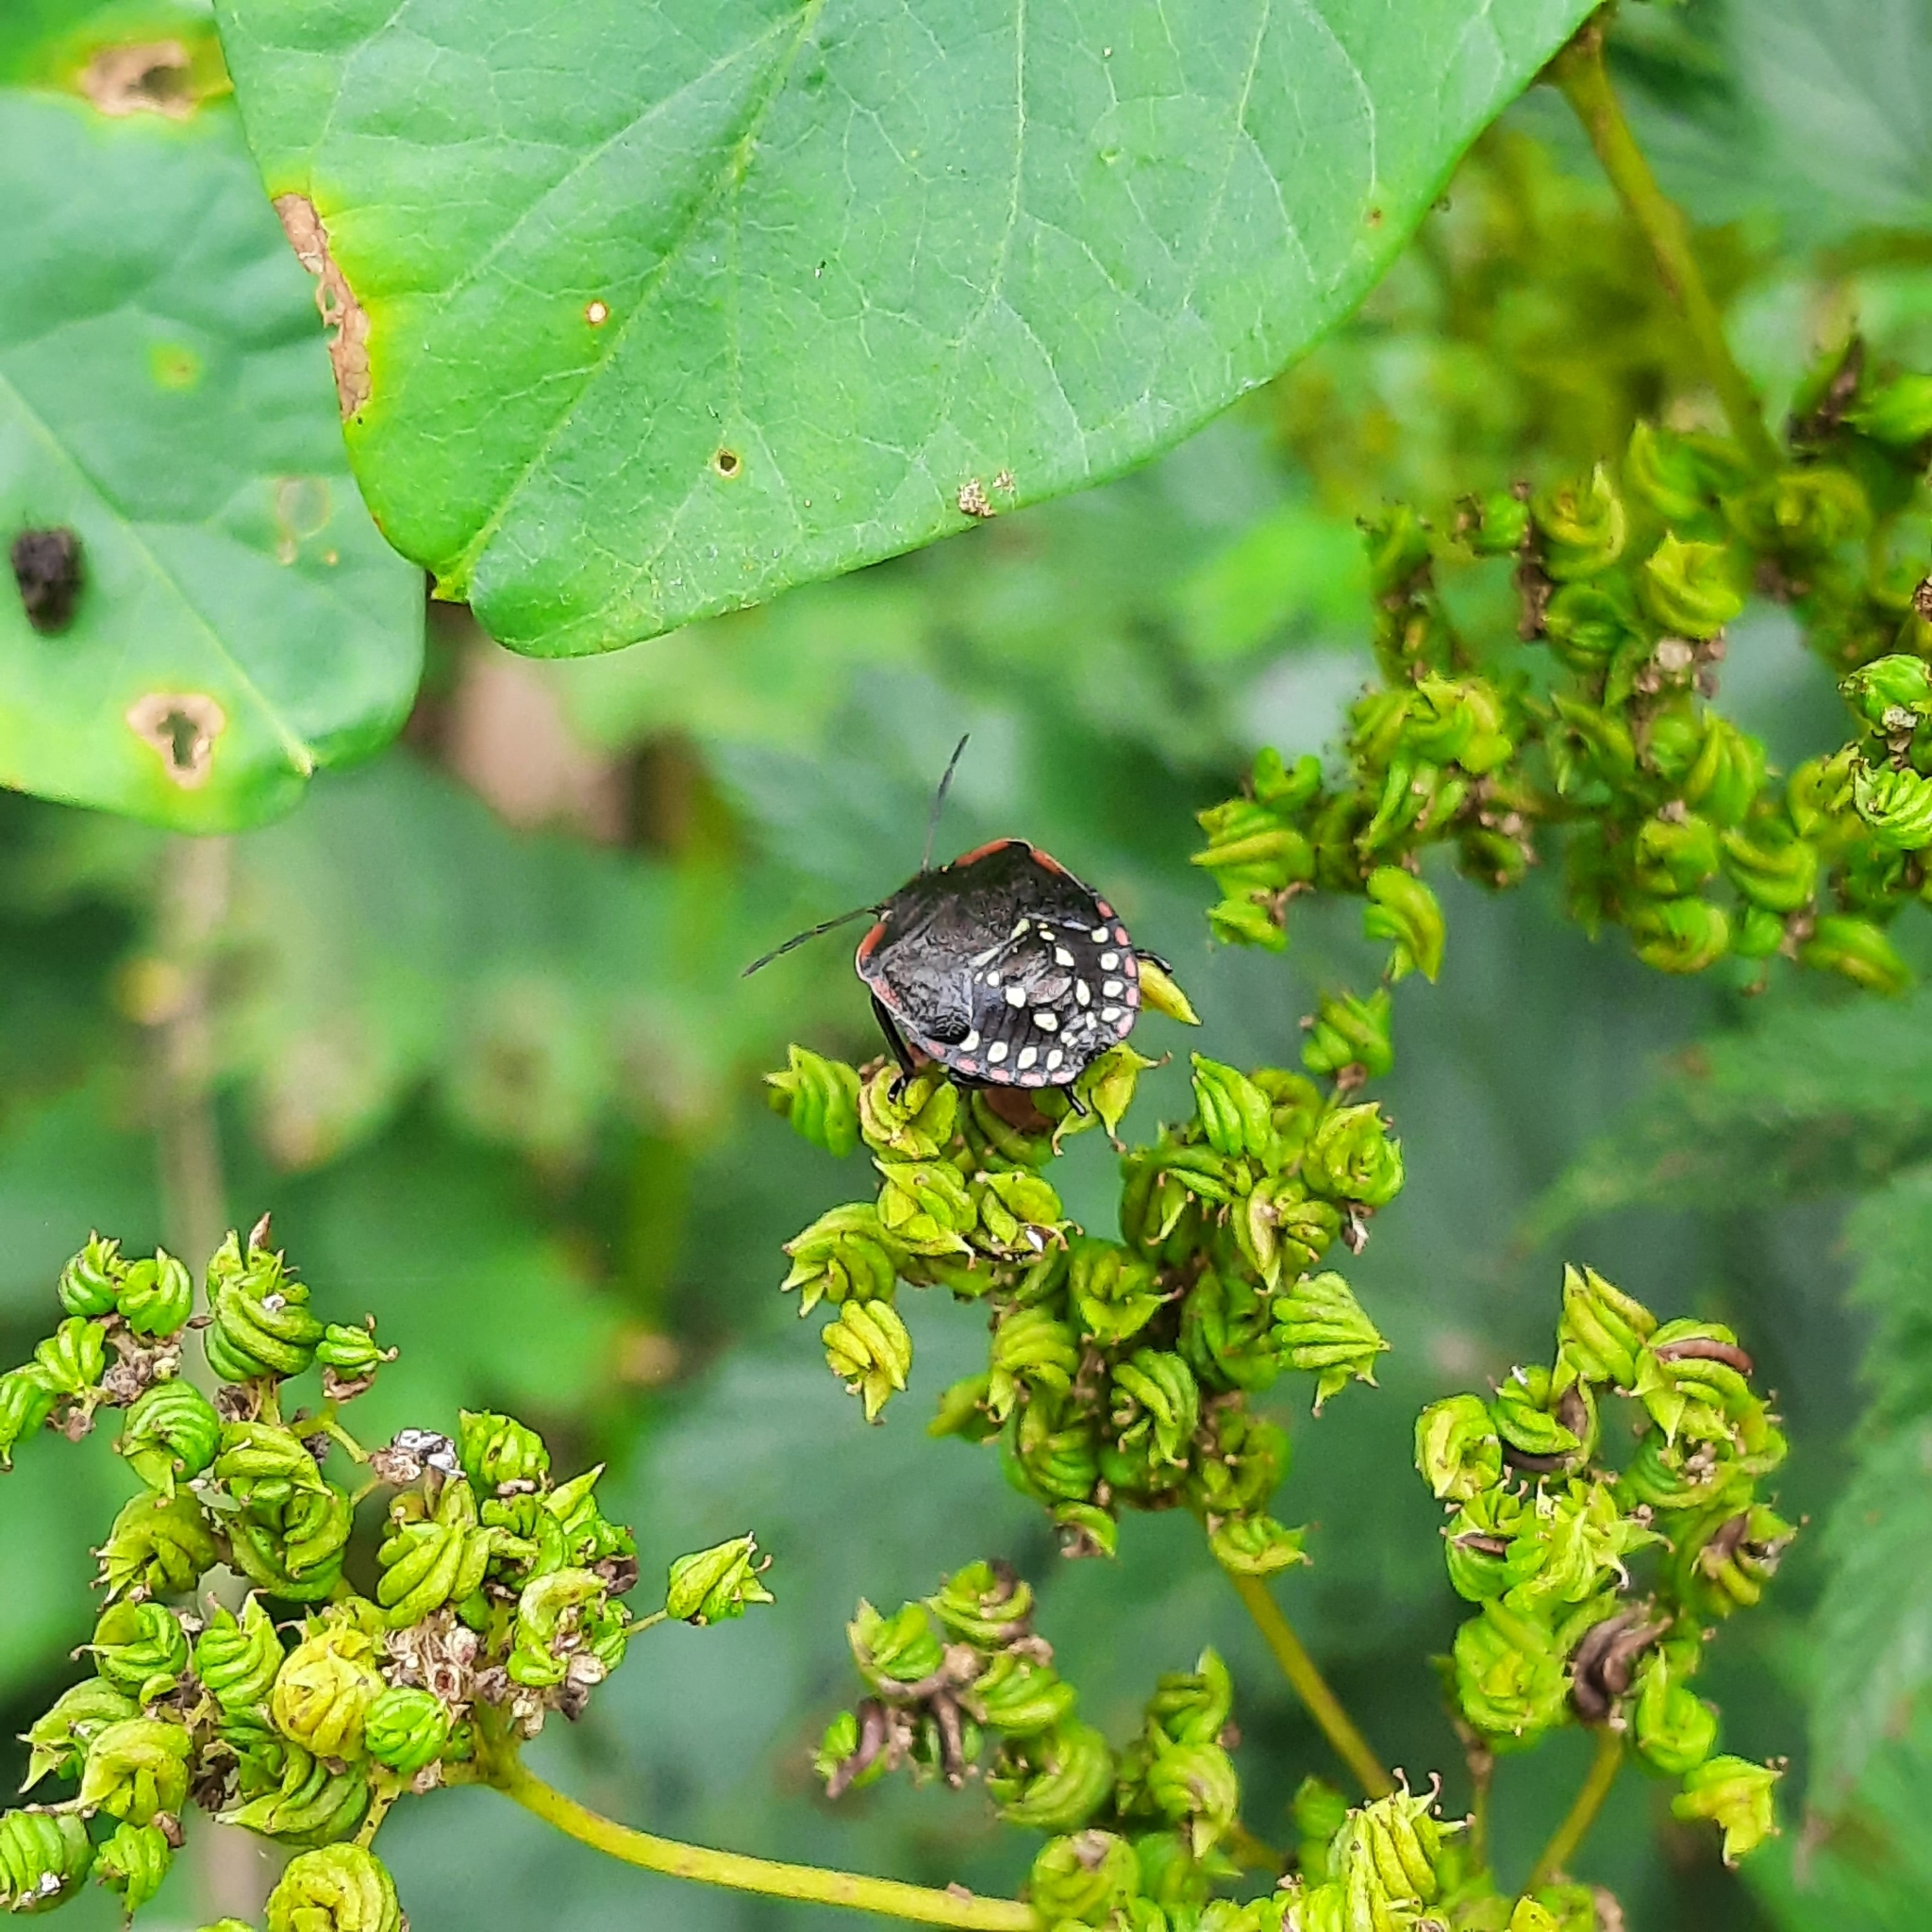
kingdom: Plantae
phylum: Tracheophyta
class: Magnoliopsida
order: Rosales
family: Rosaceae
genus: Filipendula
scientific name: Filipendula ulmaria
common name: Meadowsweet
